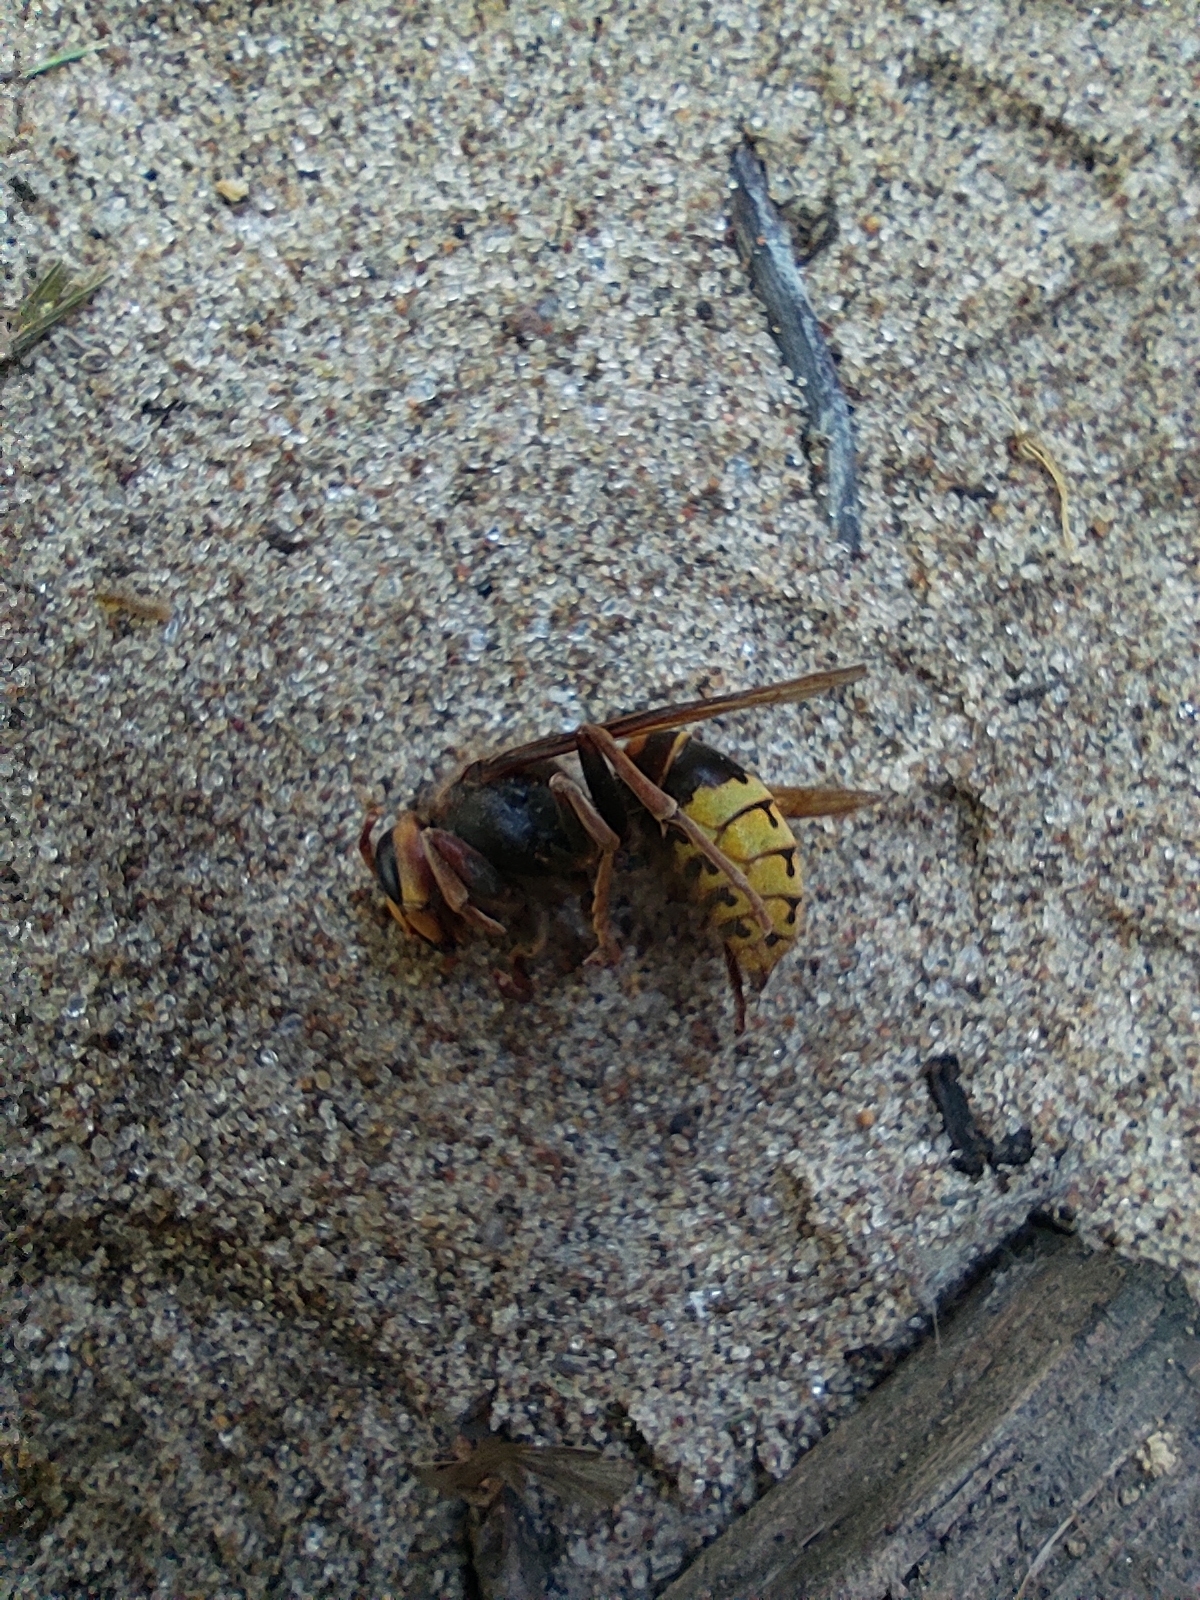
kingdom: Animalia
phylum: Arthropoda
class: Insecta
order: Hymenoptera
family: Vespidae
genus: Vespa
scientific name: Vespa crabro
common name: Hornet
